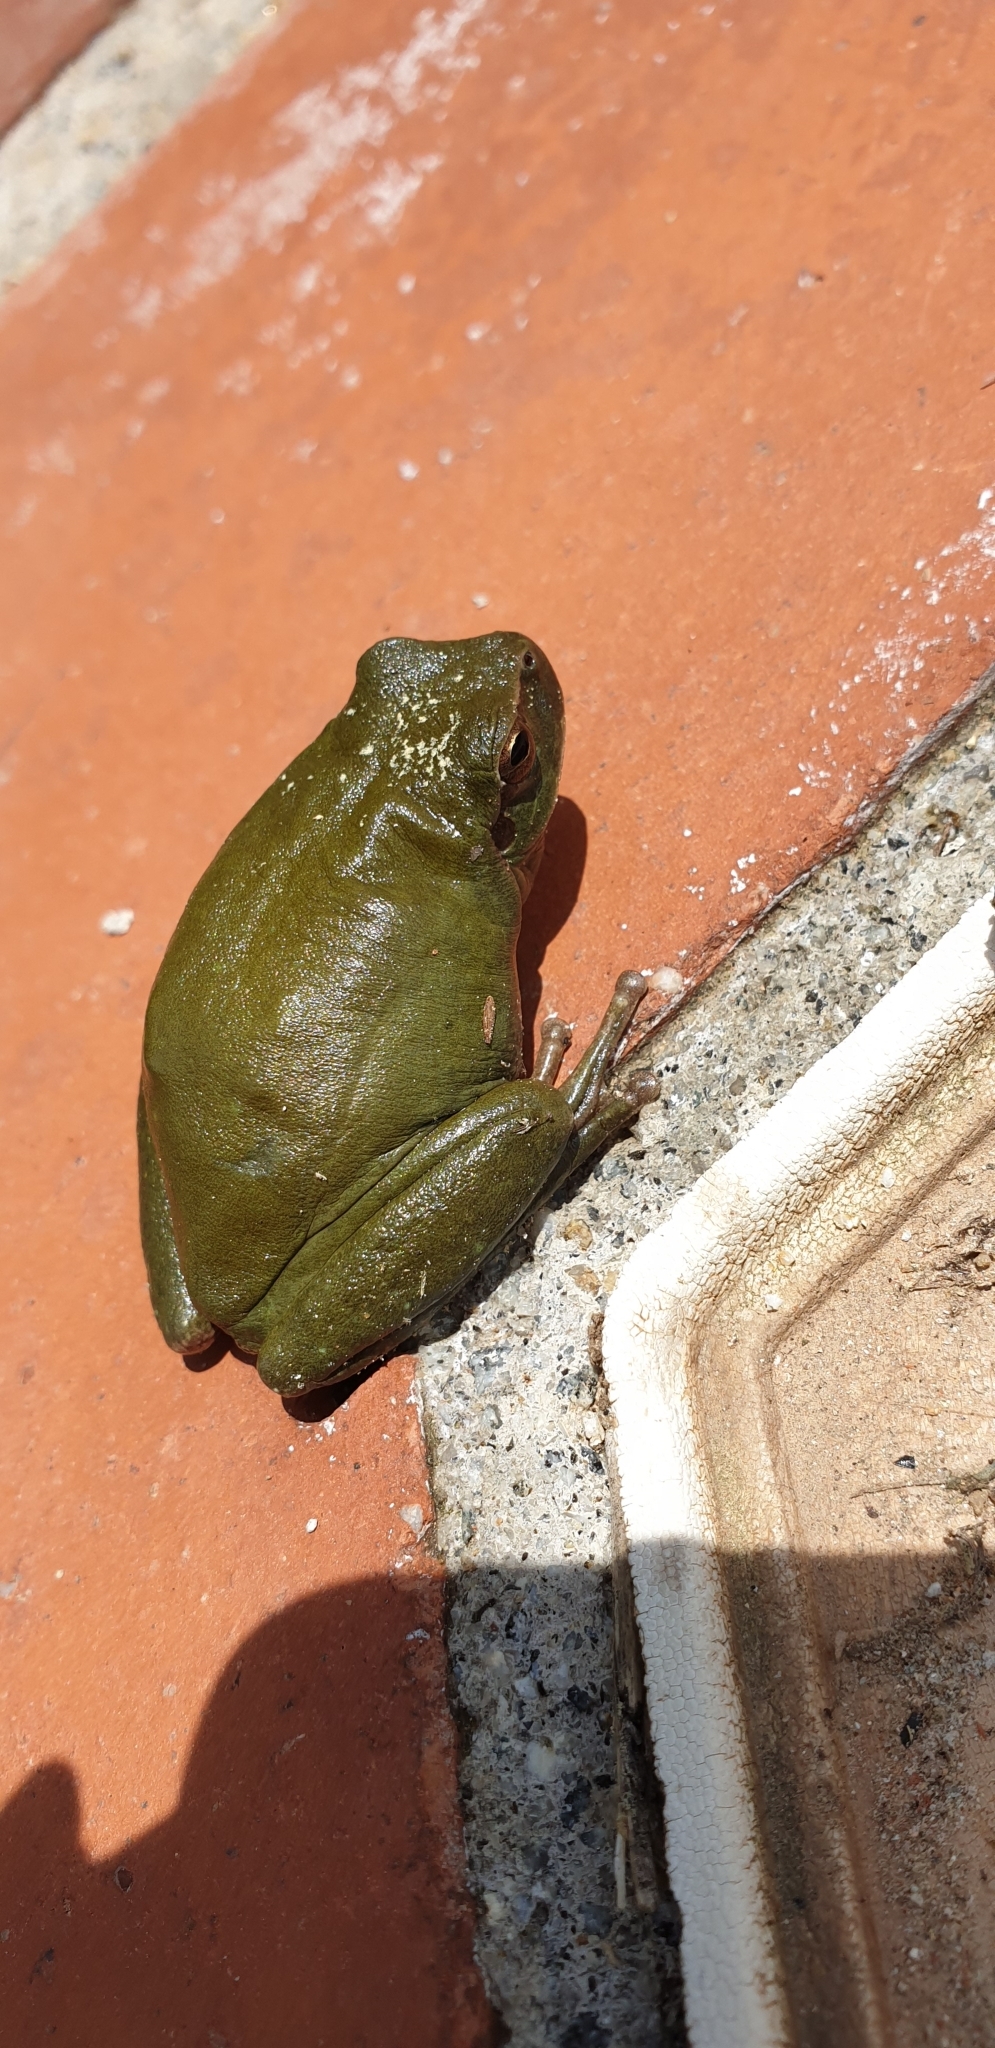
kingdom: Animalia
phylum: Chordata
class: Amphibia
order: Anura
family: Hylidae
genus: Hyla
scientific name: Hyla meridionalis
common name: Stripeless tree frog
